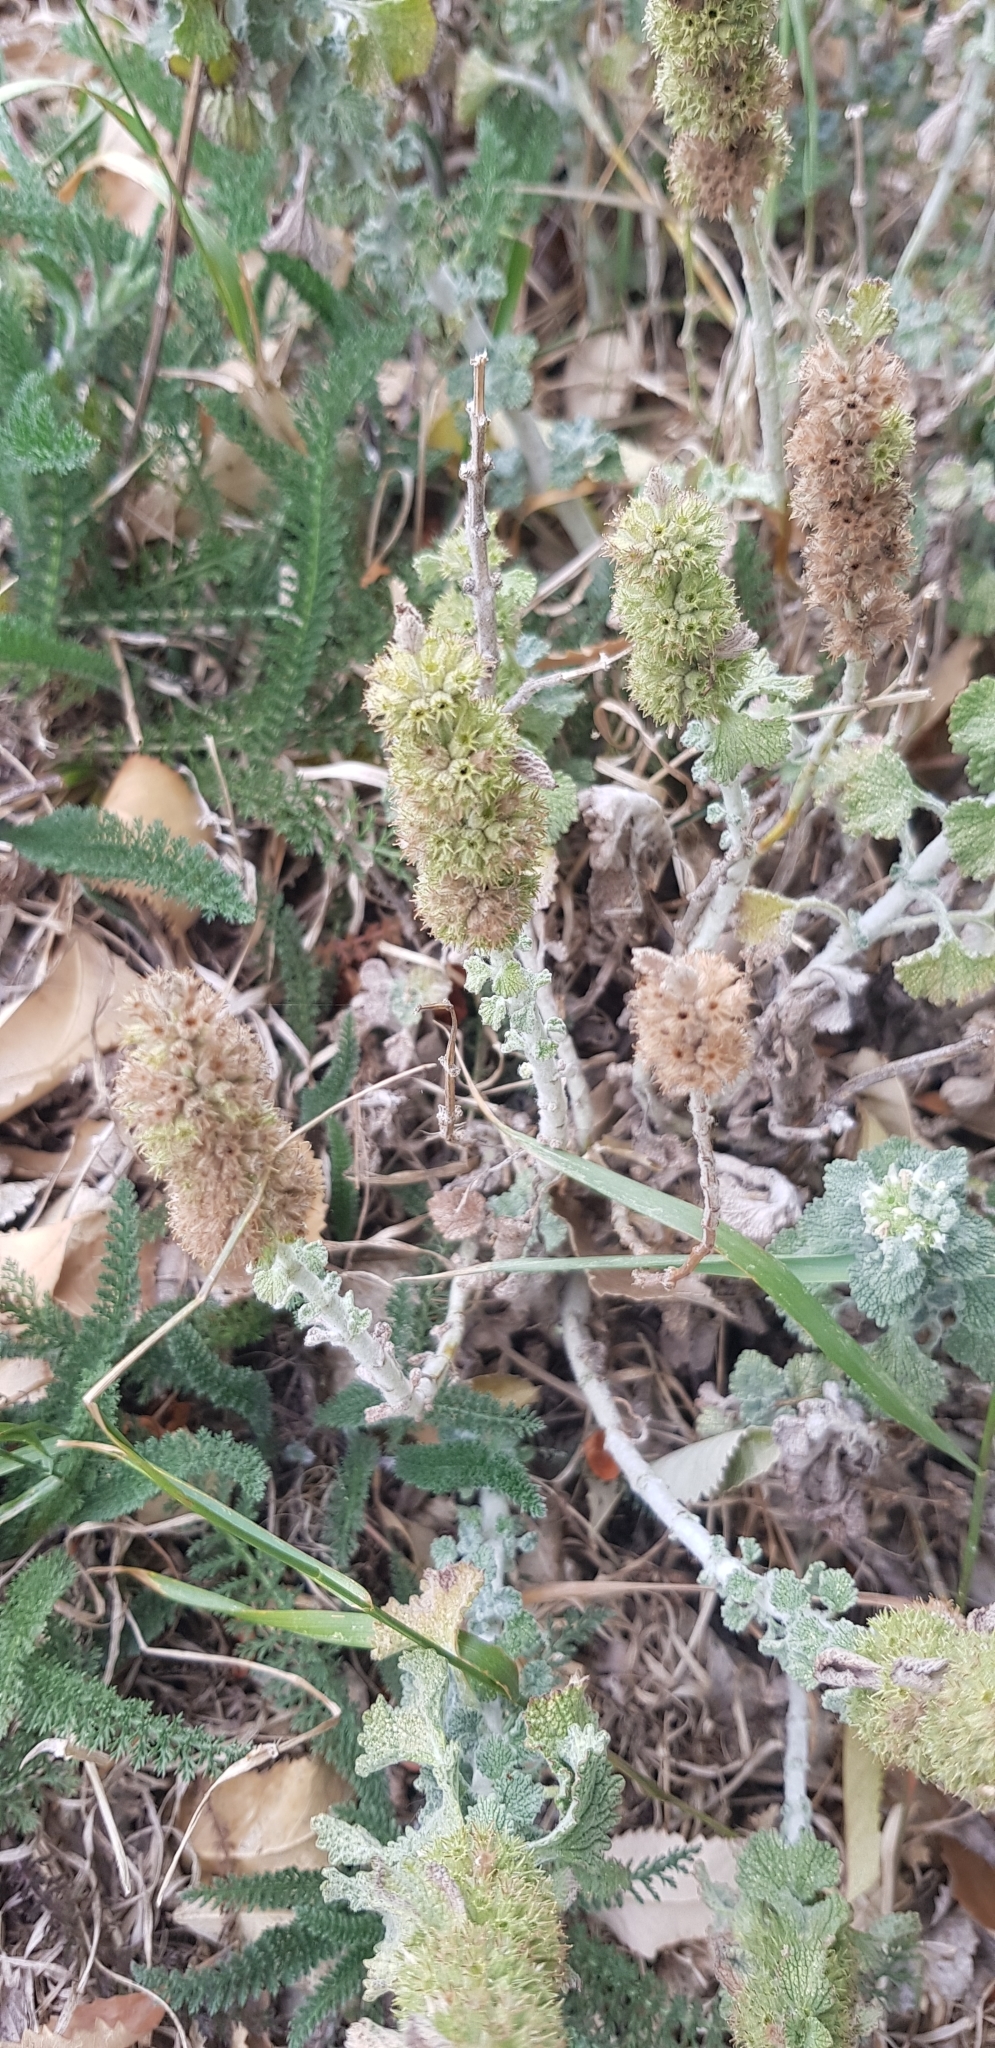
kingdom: Plantae
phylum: Tracheophyta
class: Magnoliopsida
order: Lamiales
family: Lamiaceae
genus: Marrubium
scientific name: Marrubium vulgare
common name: Horehound
